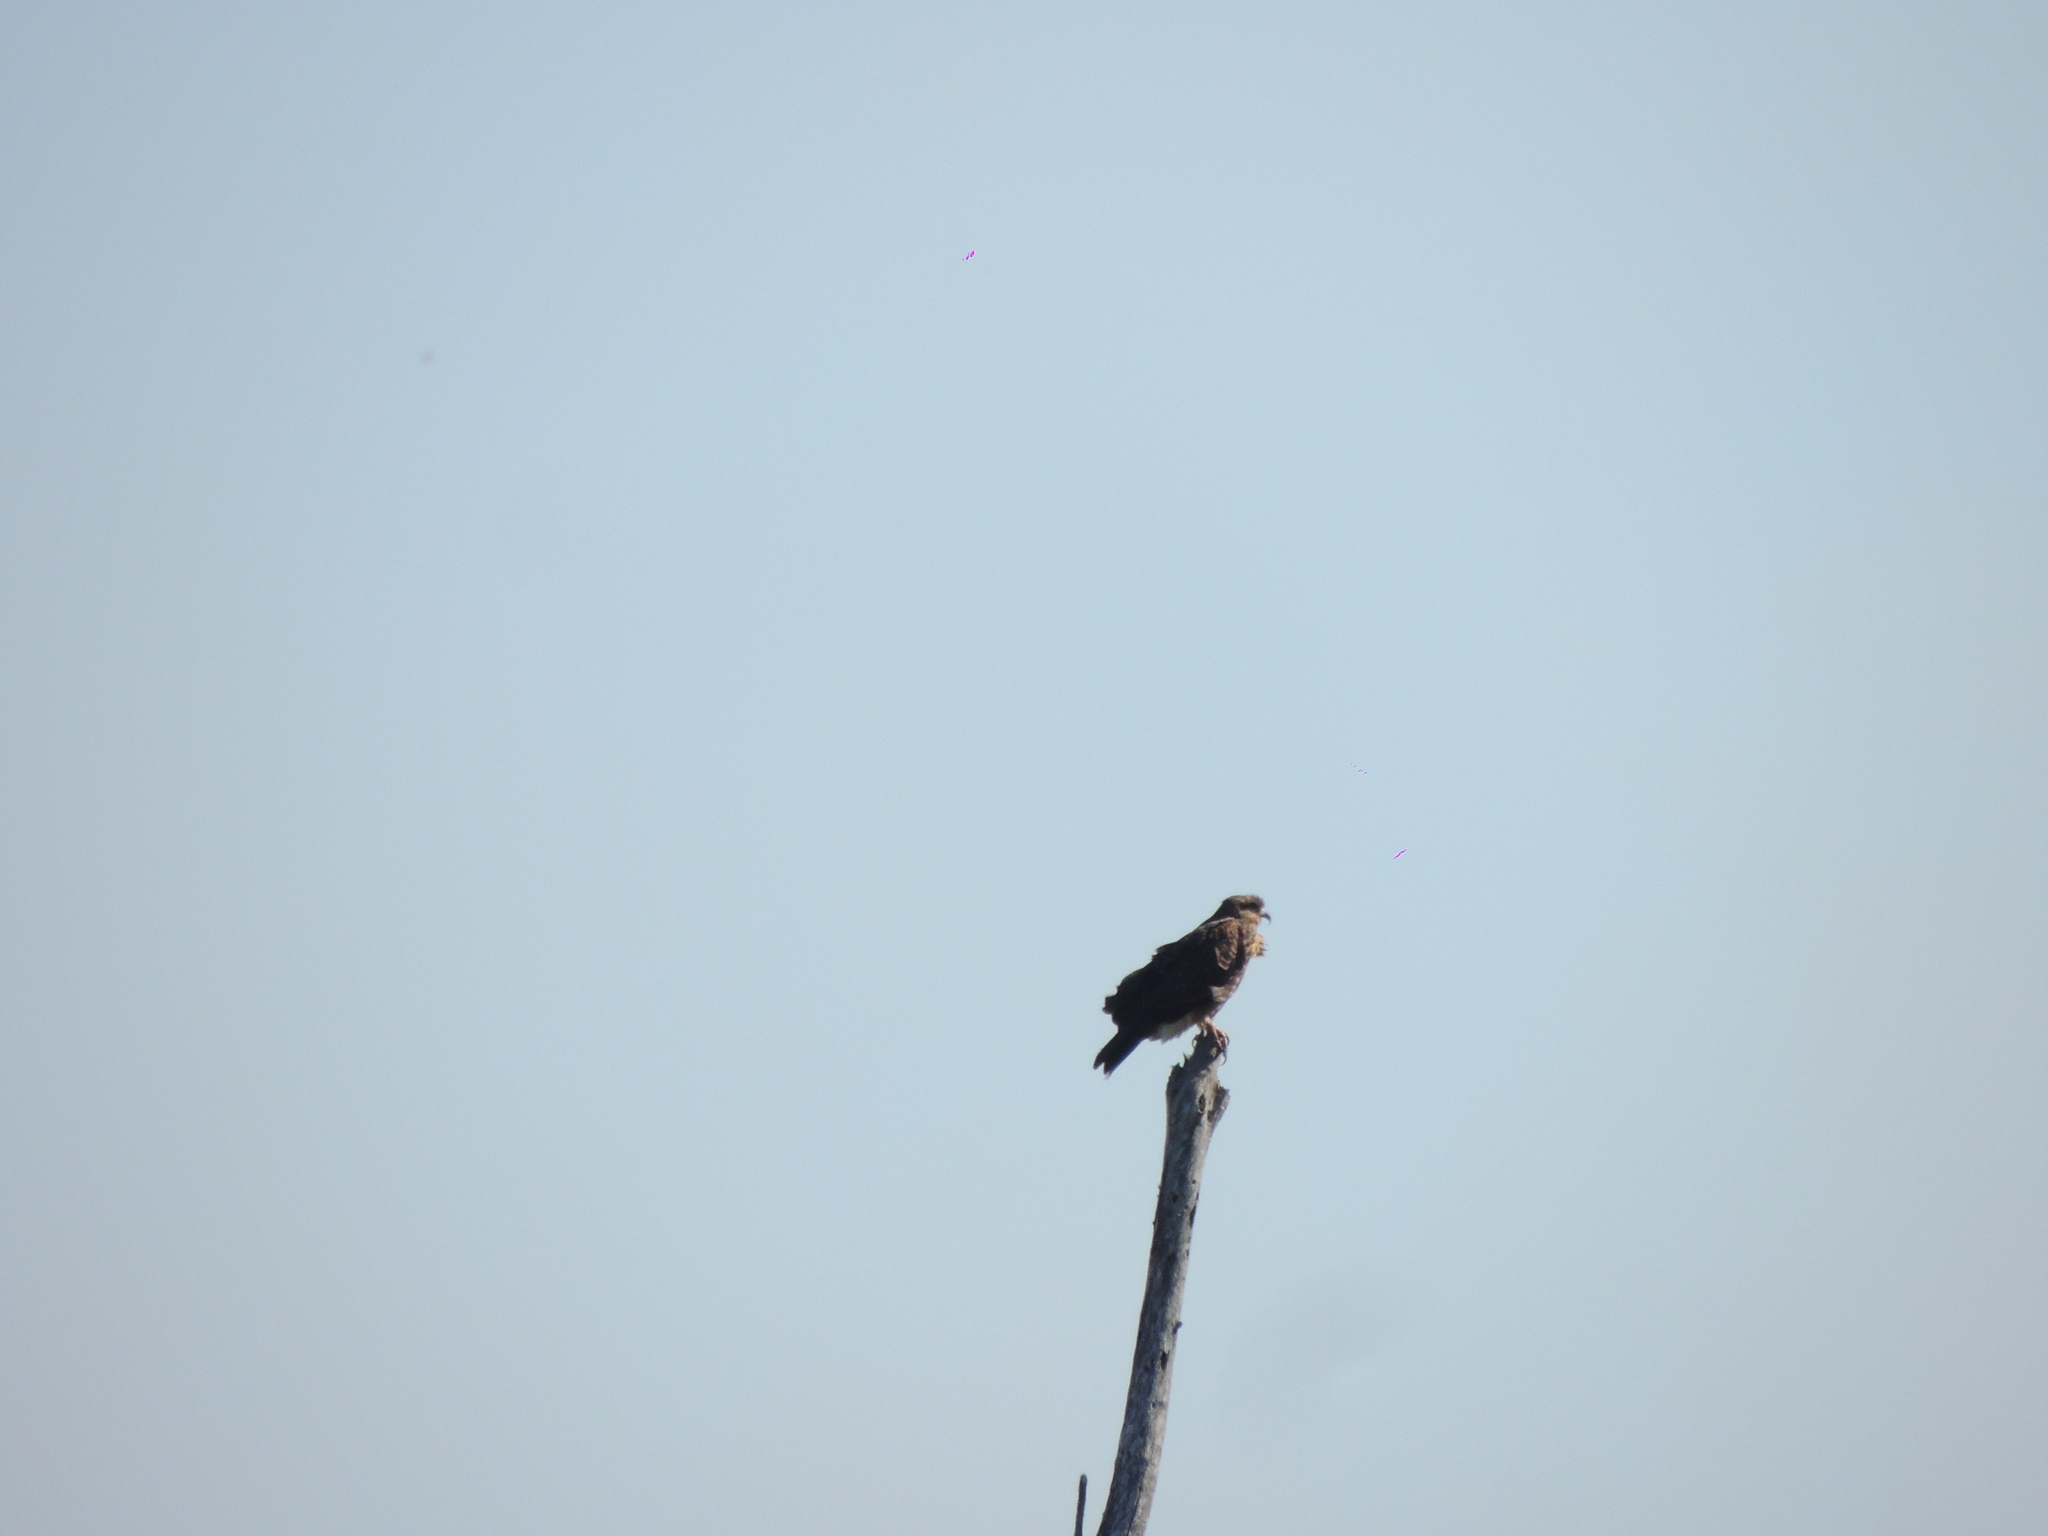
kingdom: Animalia
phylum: Chordata
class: Aves
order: Accipitriformes
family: Accipitridae
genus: Rostrhamus
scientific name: Rostrhamus sociabilis
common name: Snail kite
